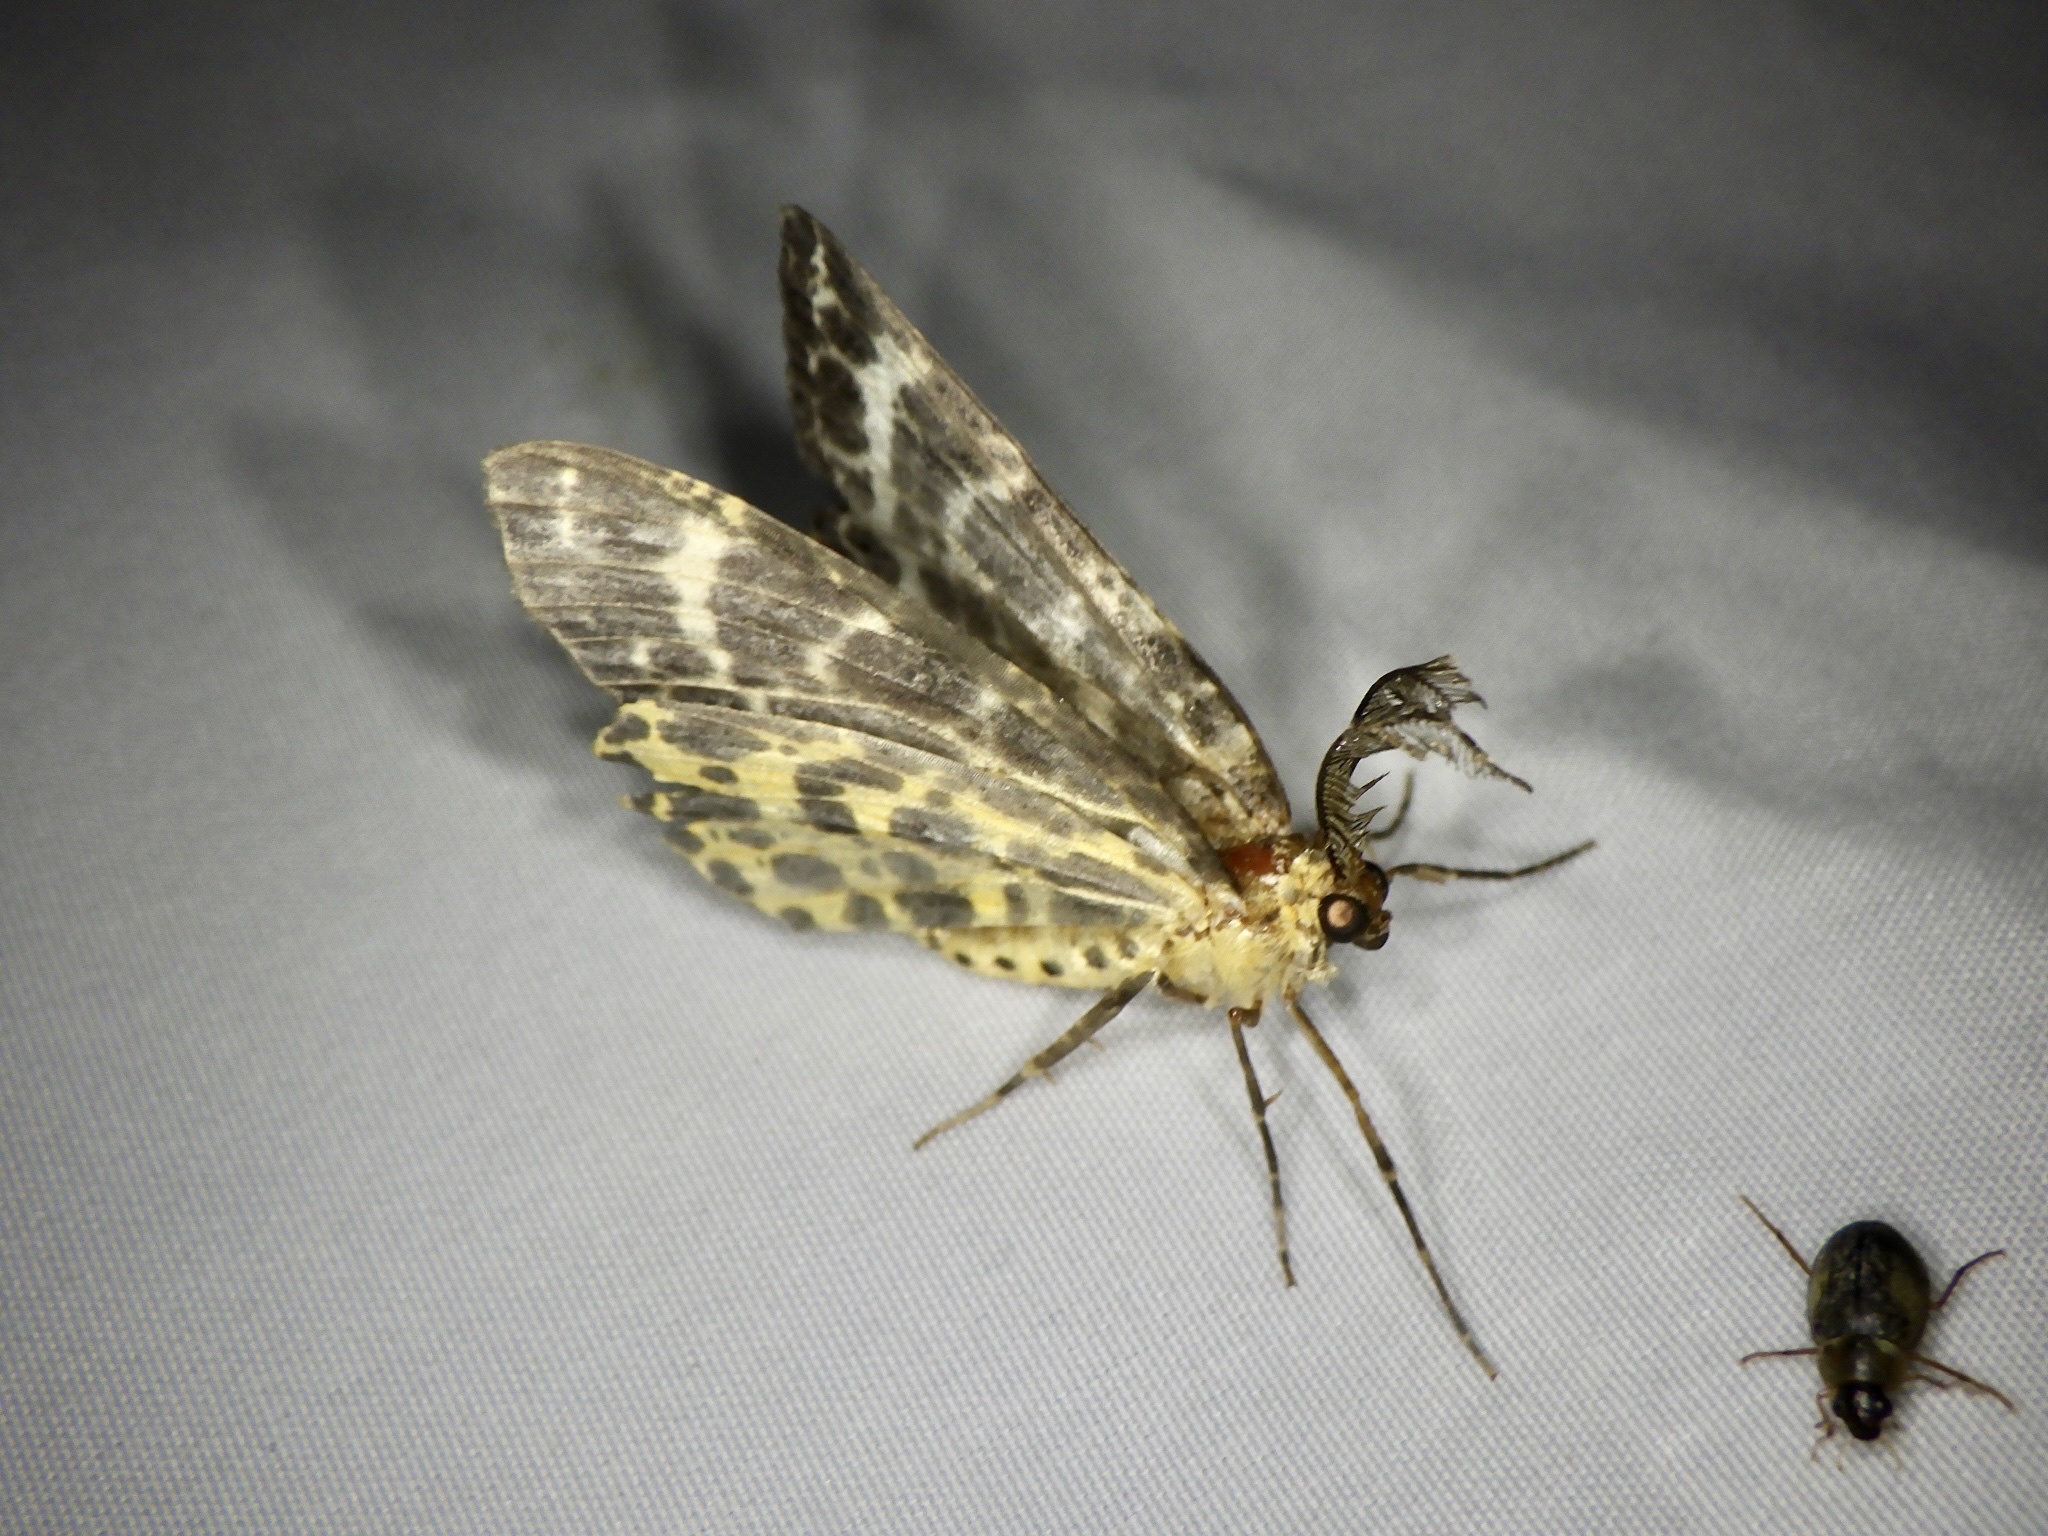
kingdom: Animalia
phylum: Arthropoda
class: Insecta
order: Lepidoptera
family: Geometridae
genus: Arichanna
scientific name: Arichanna melanaria
